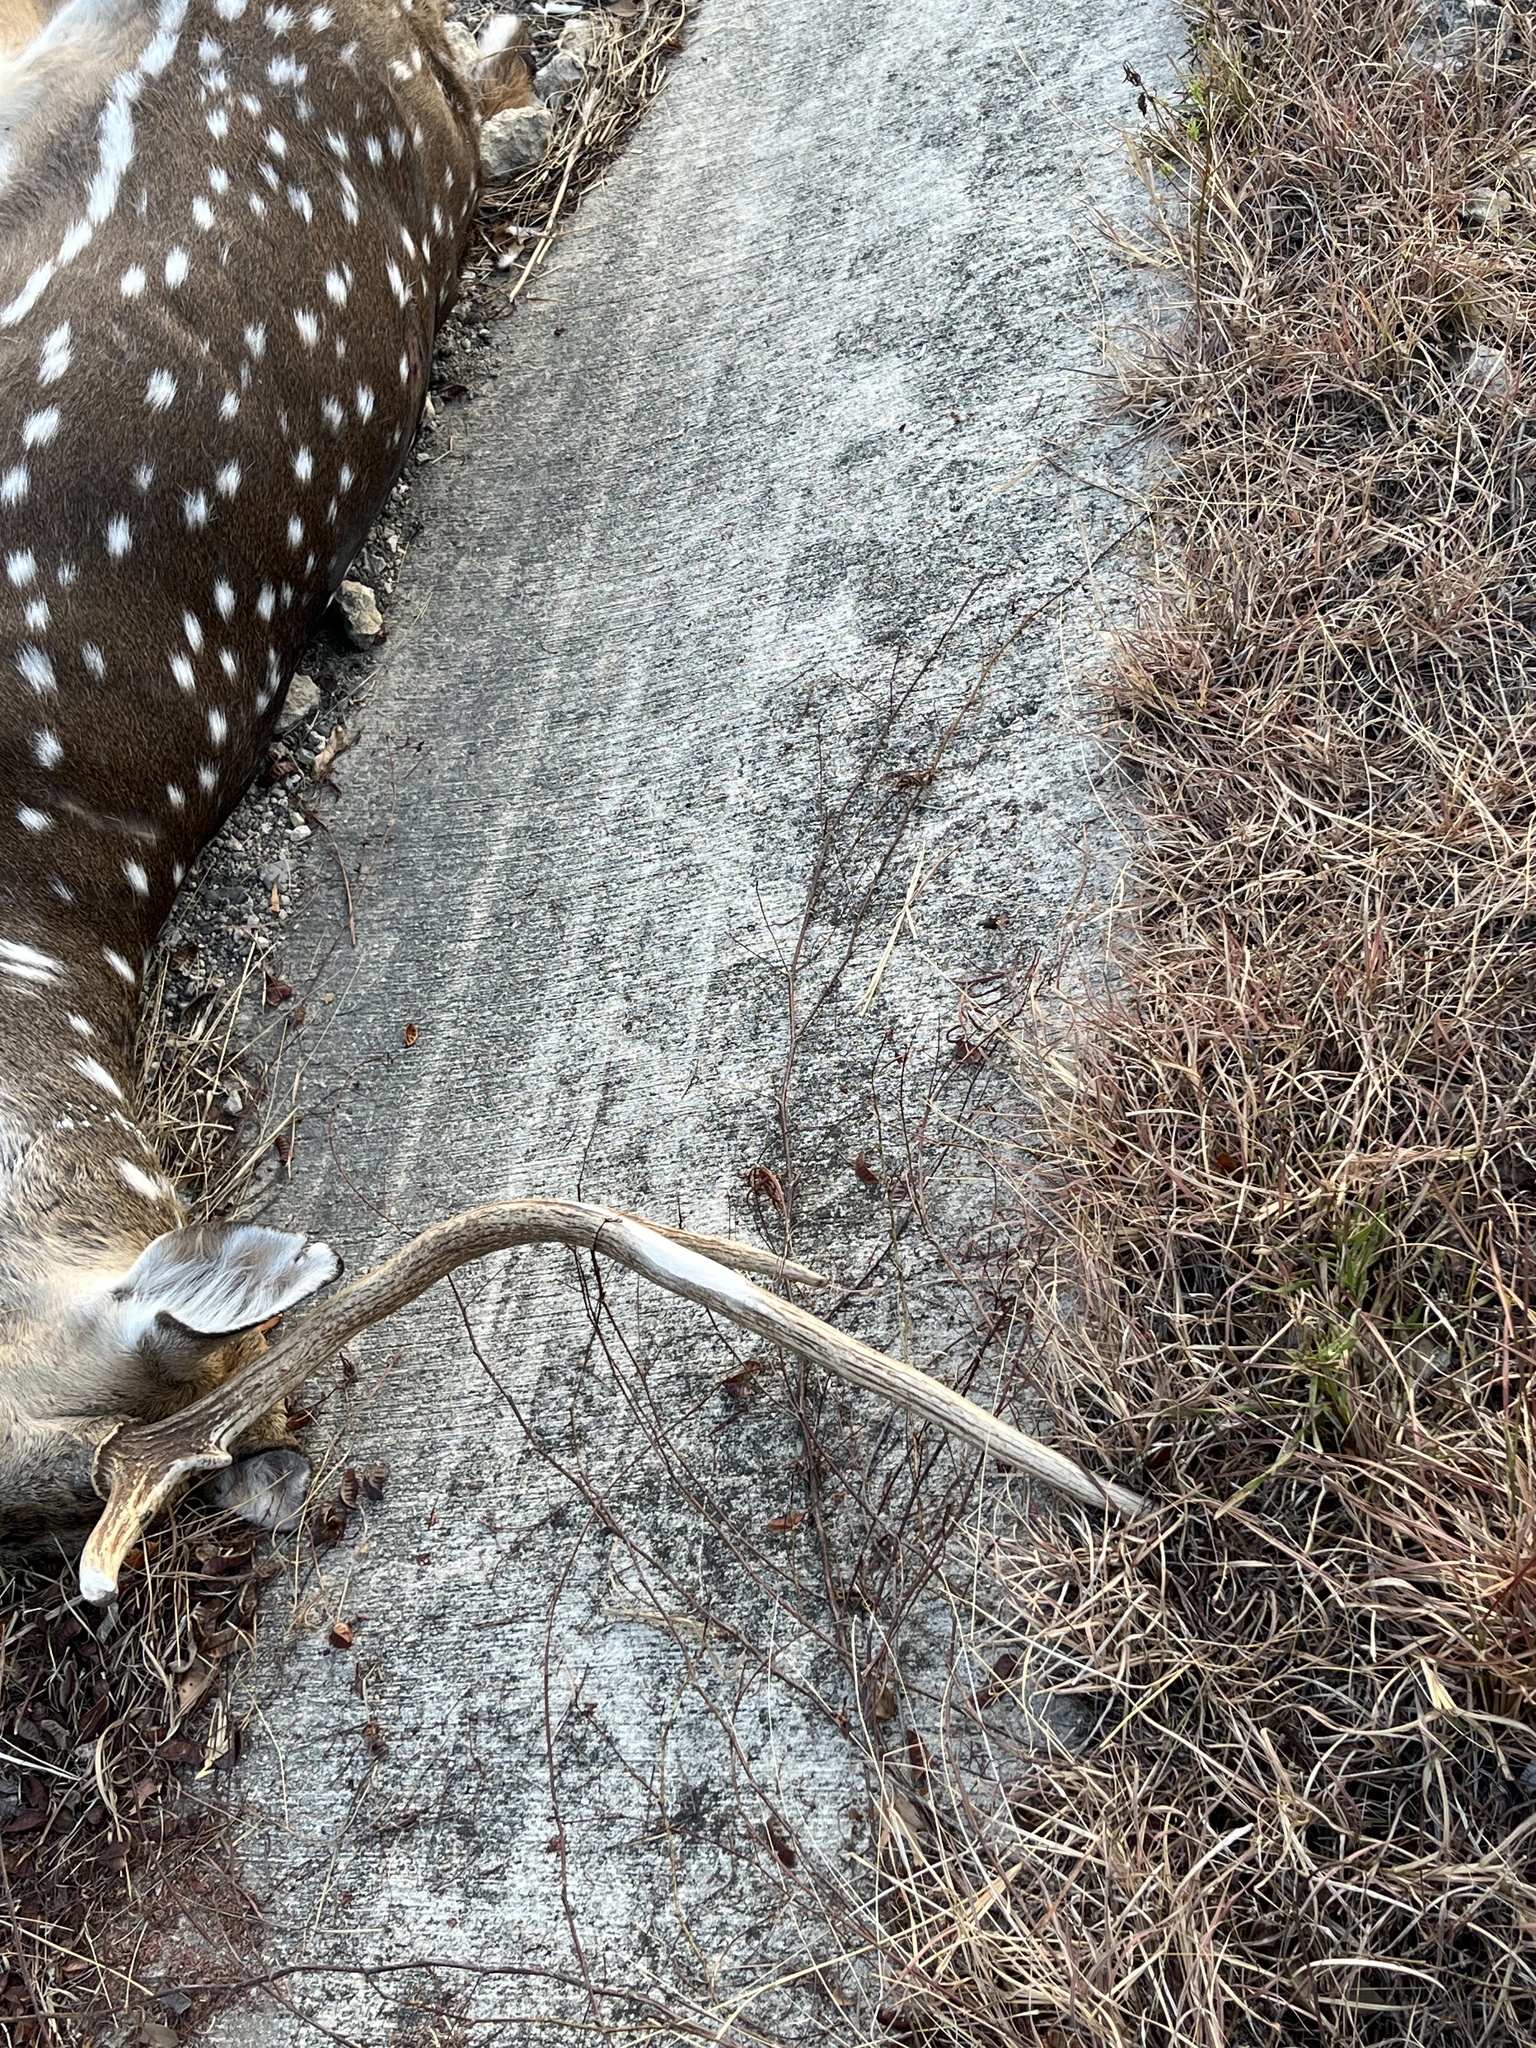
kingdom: Animalia
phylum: Chordata
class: Mammalia
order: Artiodactyla
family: Cervidae
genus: Axis
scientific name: Axis axis
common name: Chital
